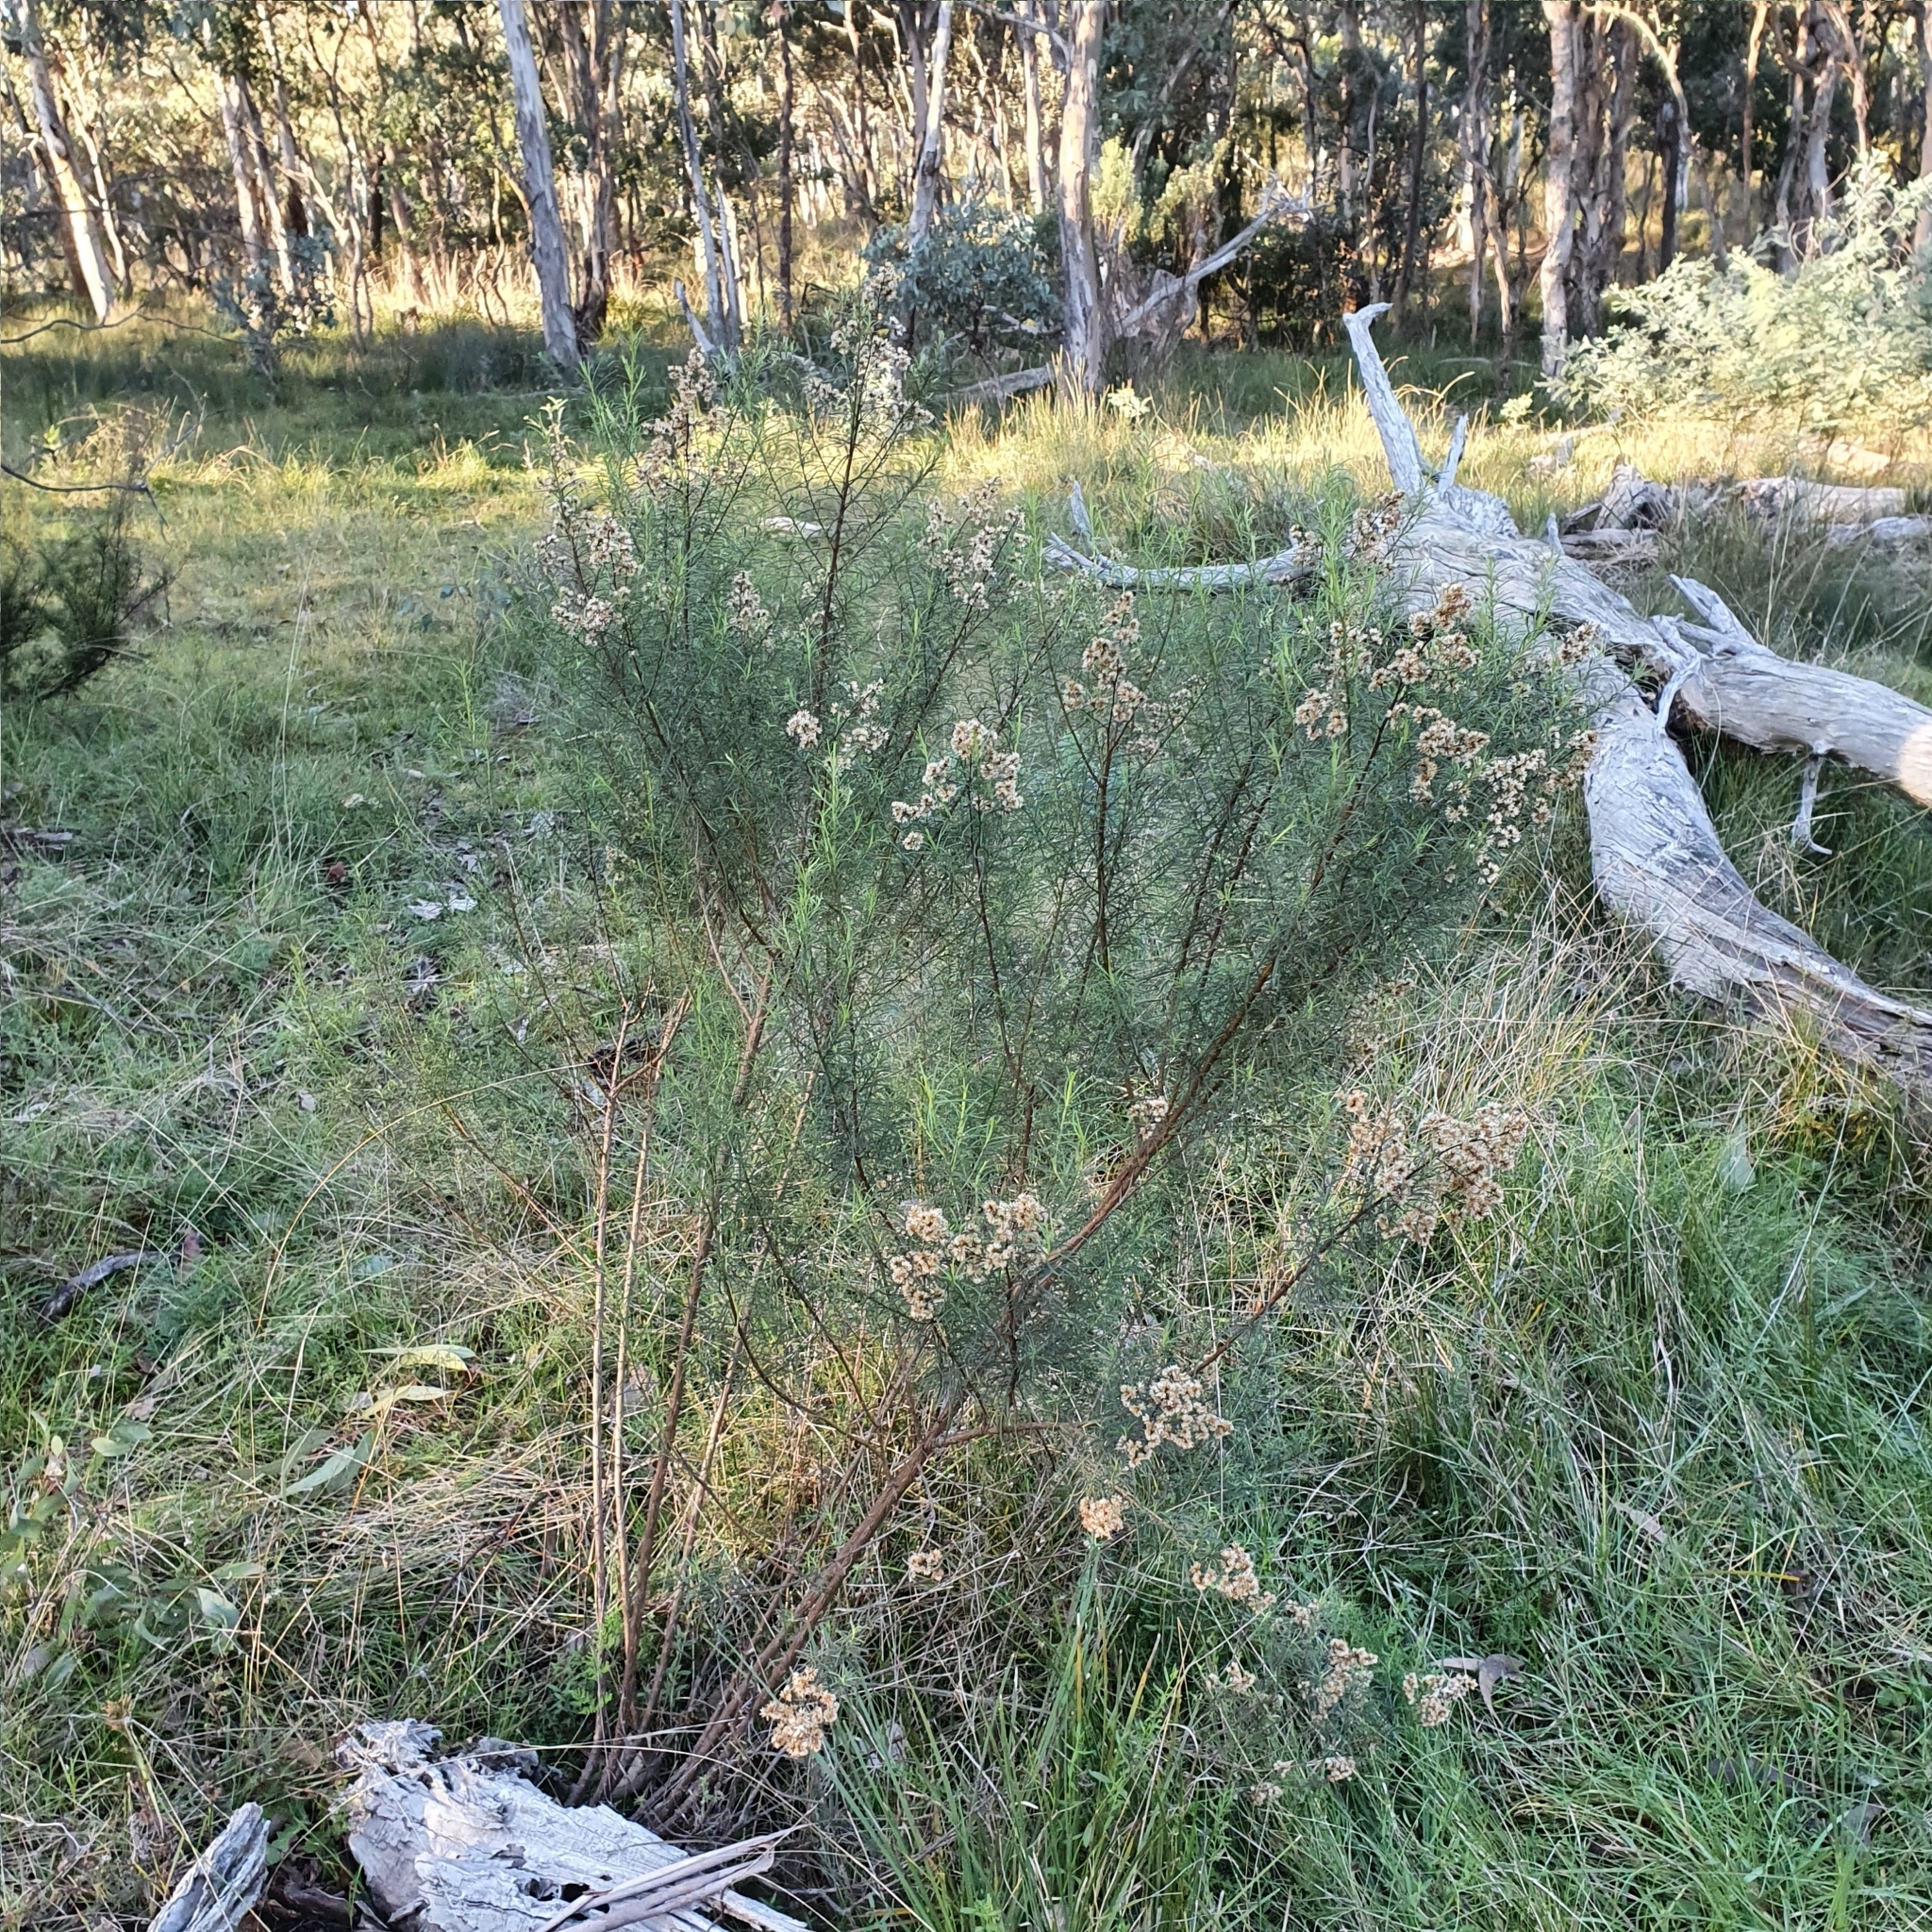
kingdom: Plantae
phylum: Tracheophyta
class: Magnoliopsida
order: Asterales
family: Asteraceae
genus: Cassinia
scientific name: Cassinia quinquefaria
